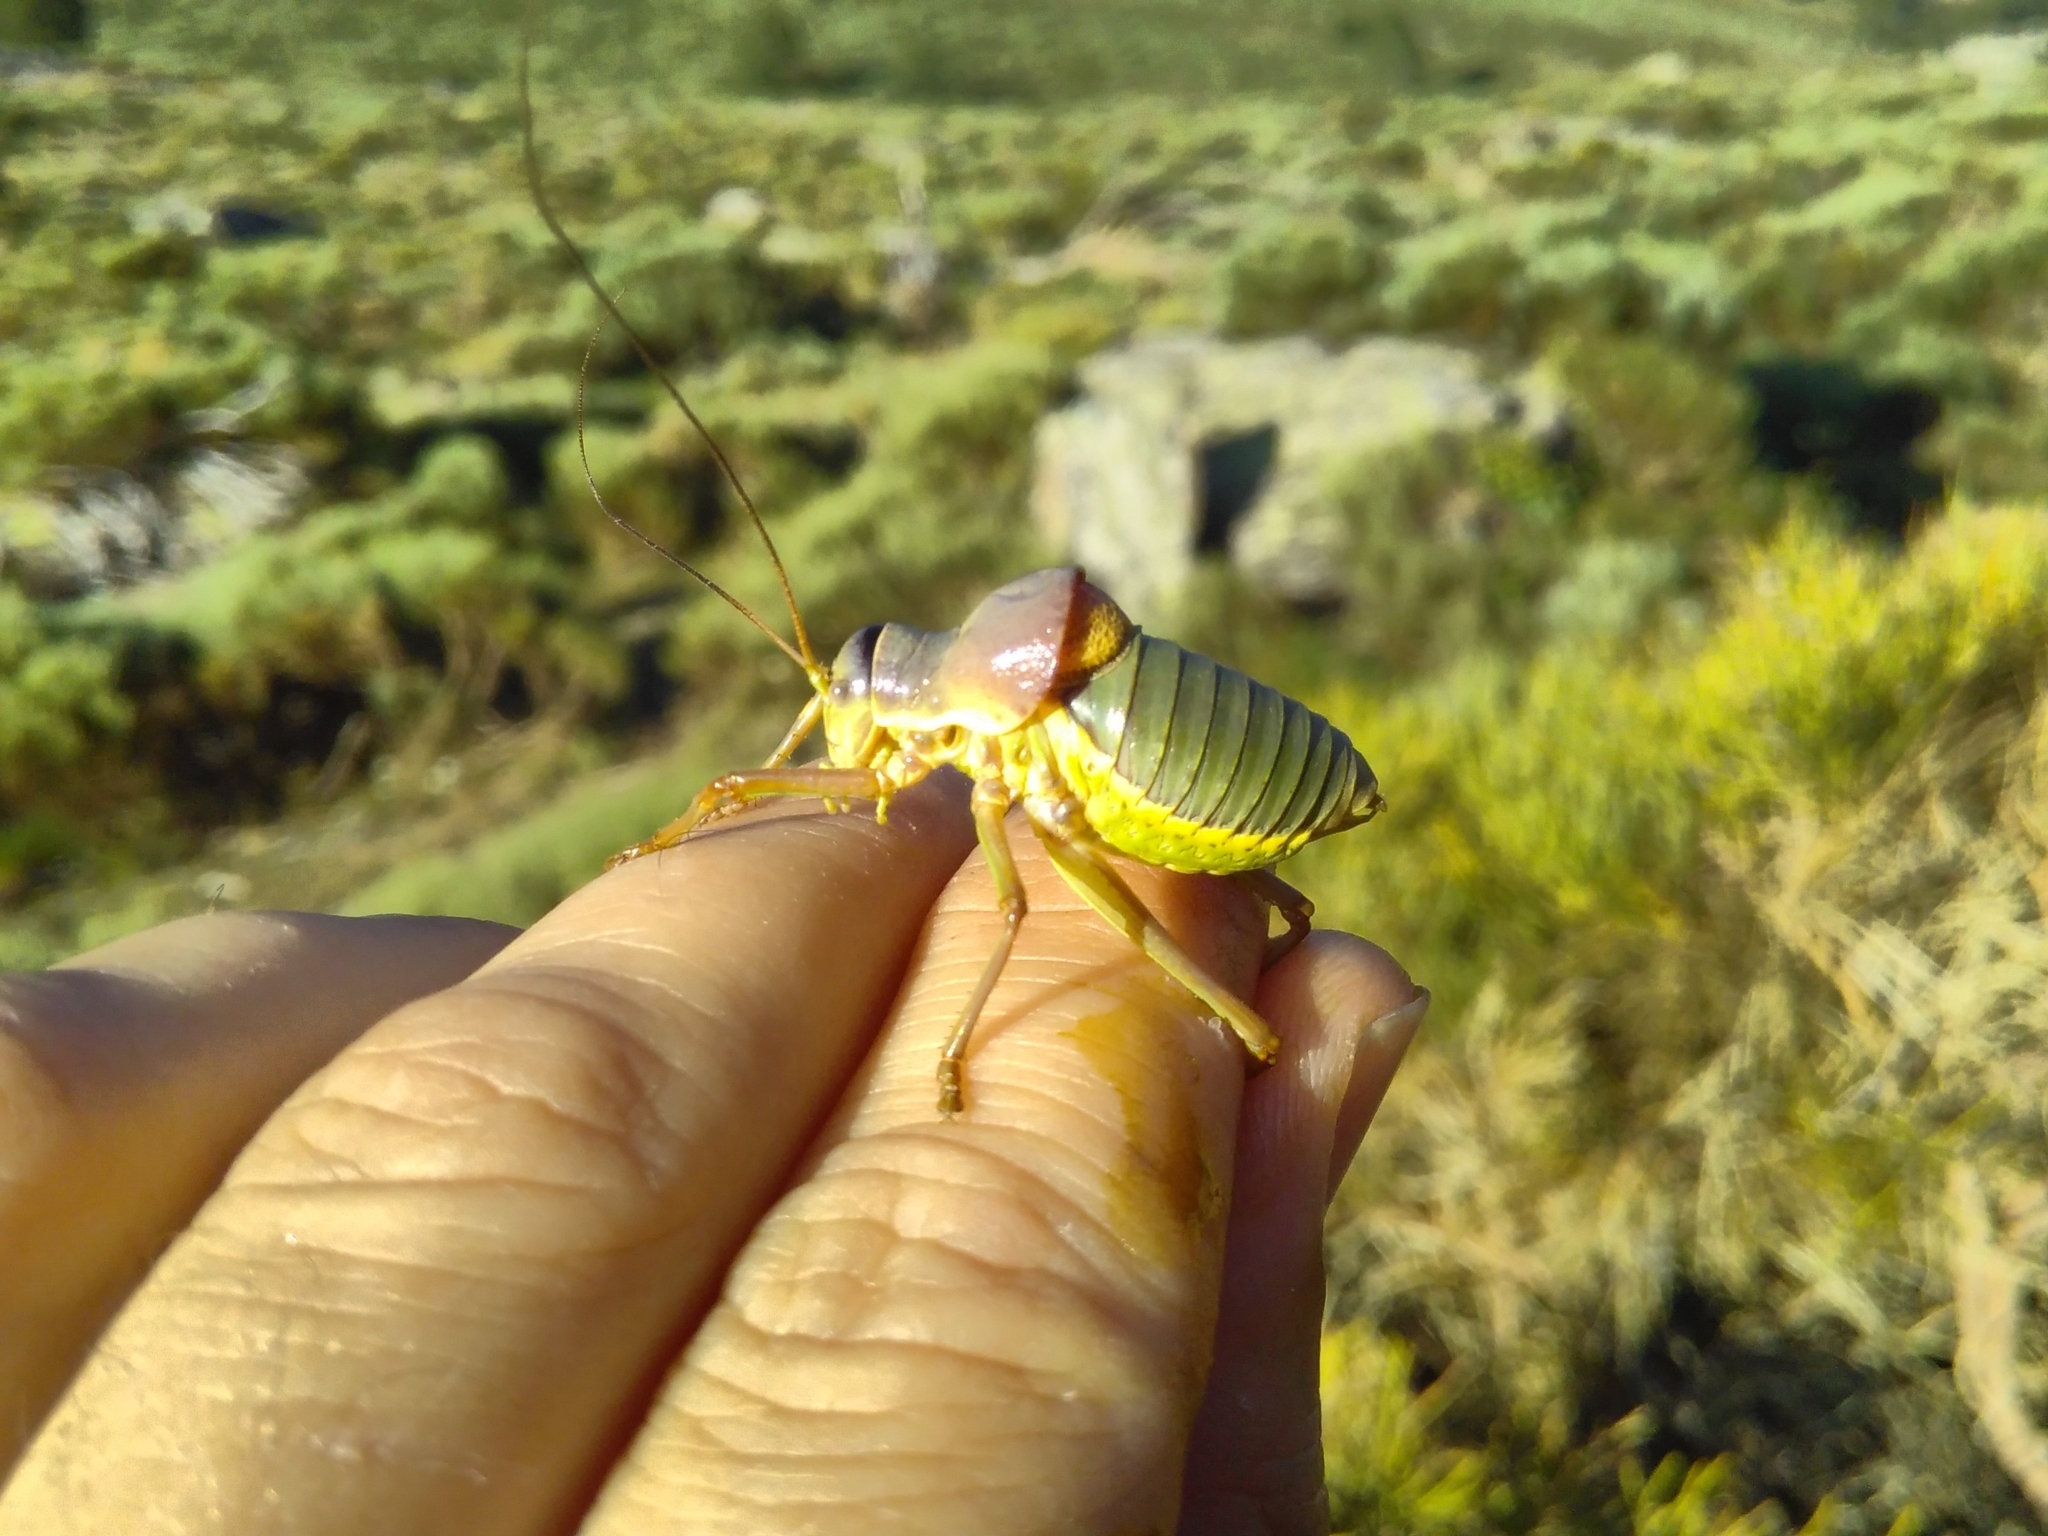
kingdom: Animalia
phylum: Arthropoda
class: Insecta
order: Orthoptera
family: Tettigoniidae
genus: Ephippiger
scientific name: Ephippiger diurnus
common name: Western saddle bush-cricket
